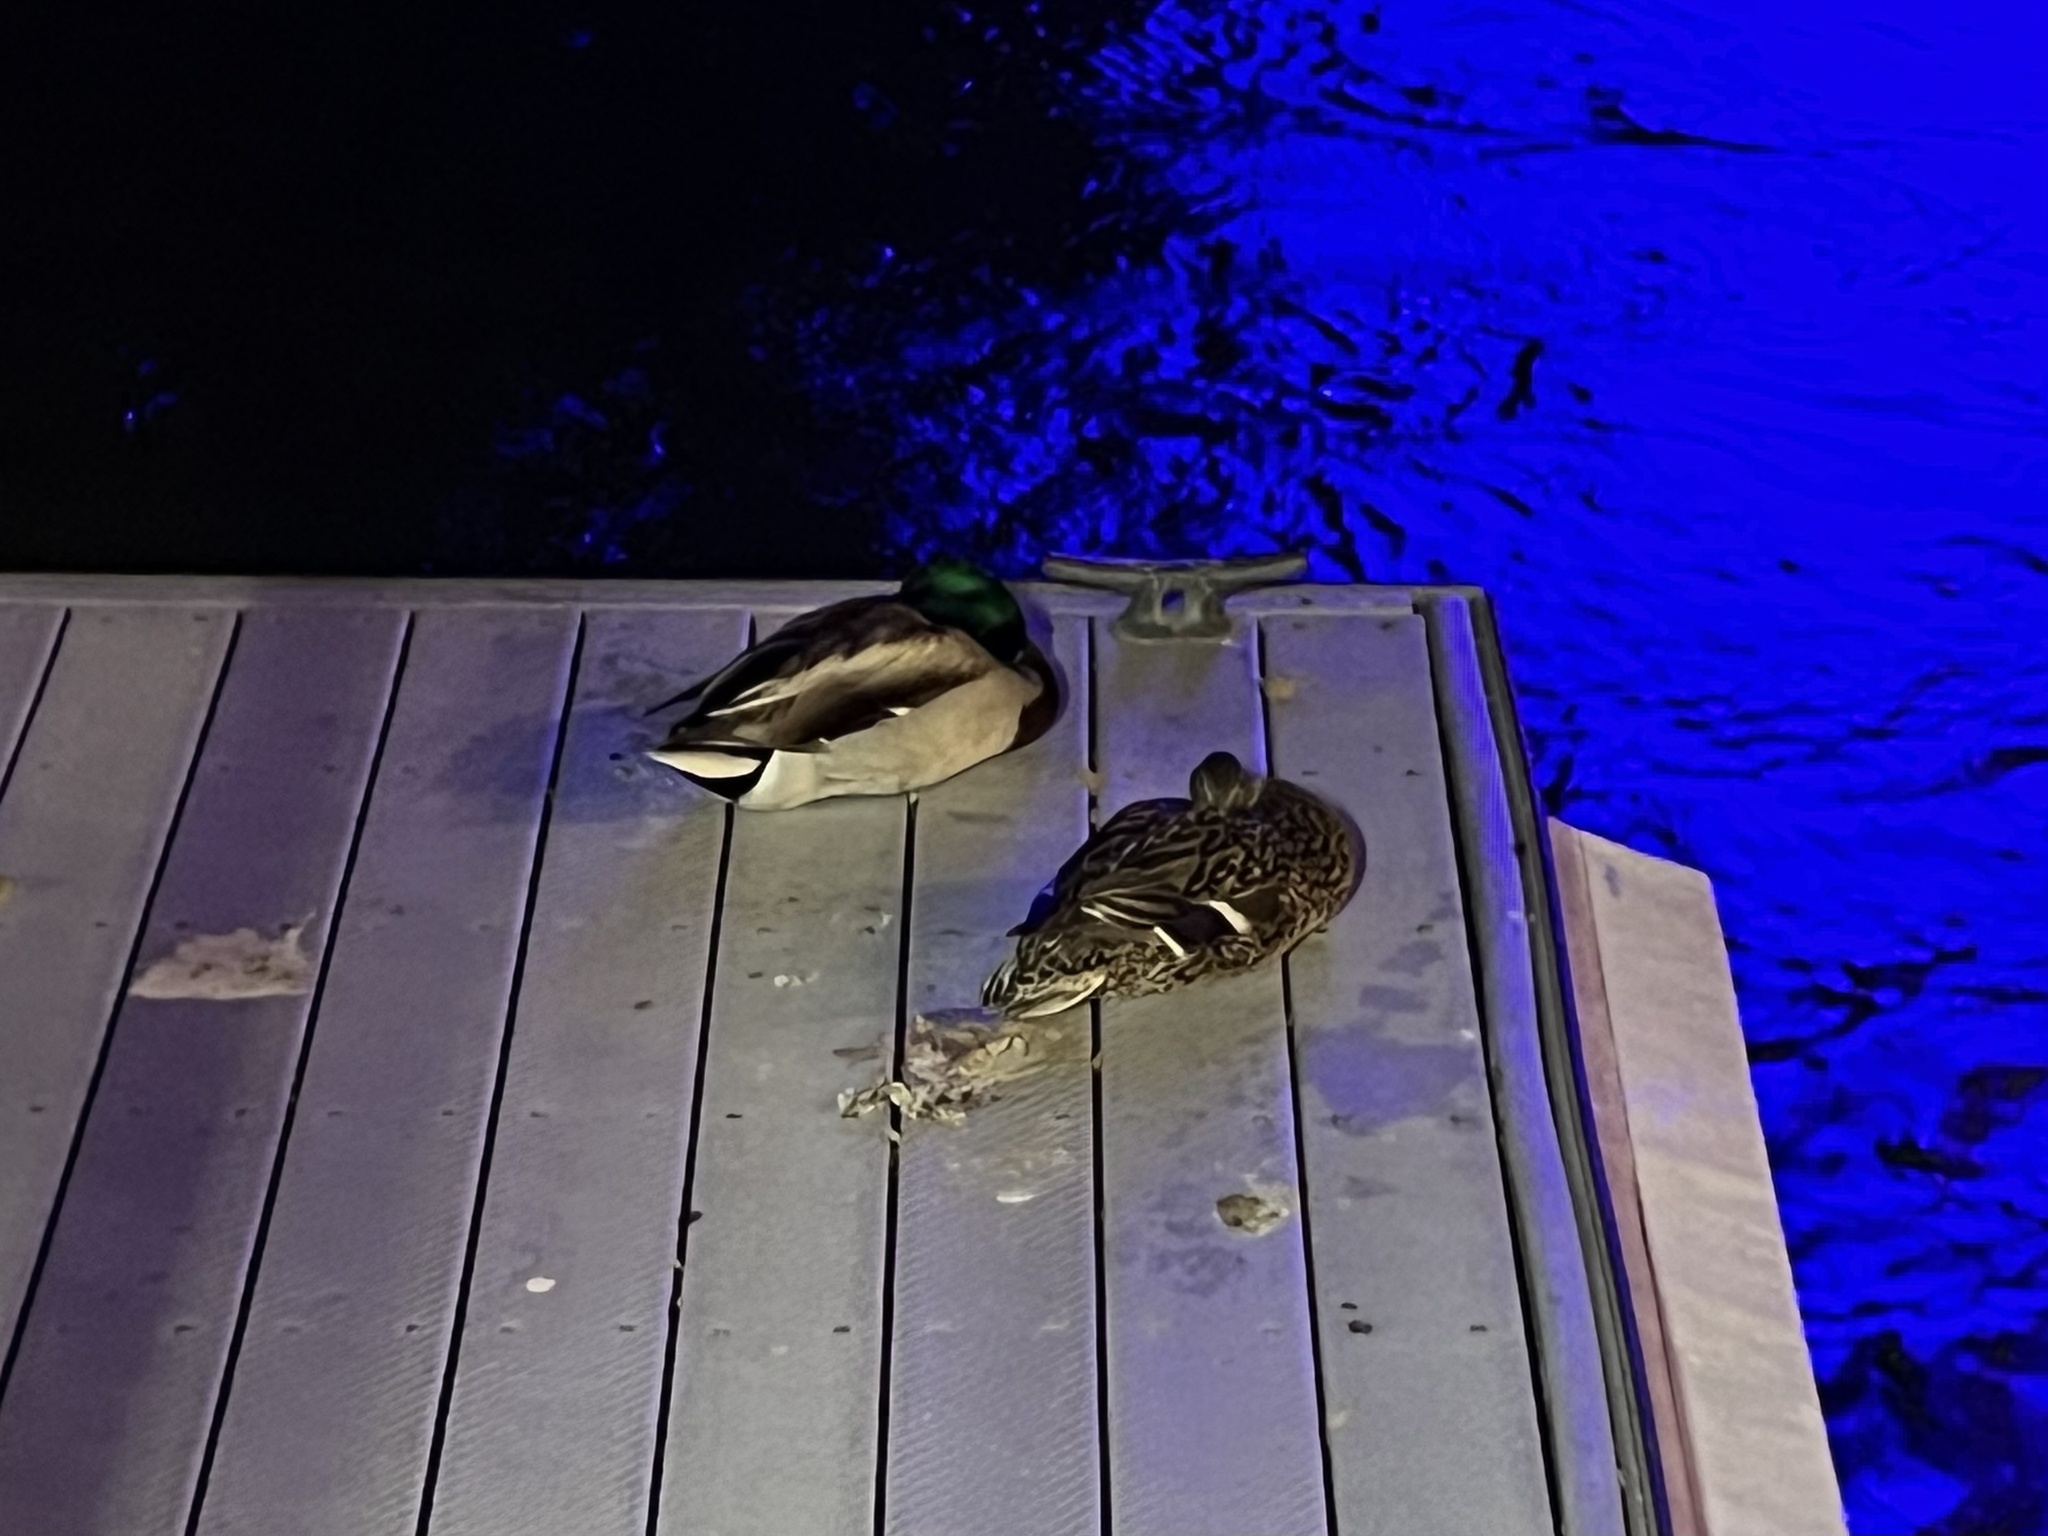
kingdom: Animalia
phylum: Chordata
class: Aves
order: Anseriformes
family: Anatidae
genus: Anas
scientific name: Anas platyrhynchos
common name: Mallard
